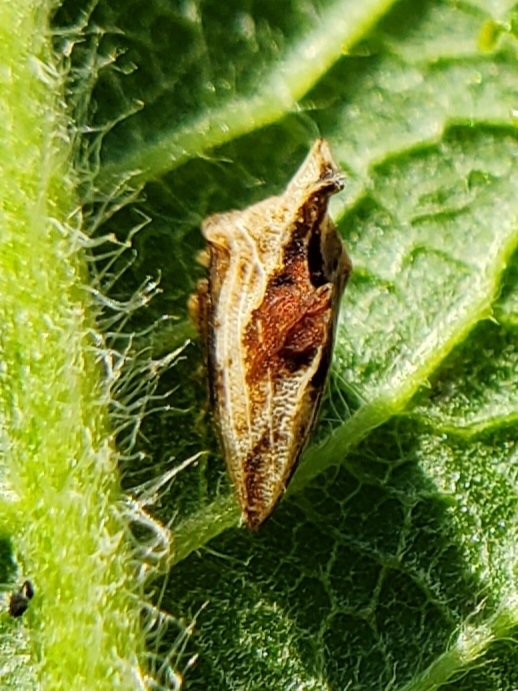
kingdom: Animalia
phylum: Arthropoda
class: Insecta
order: Hemiptera
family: Membracidae
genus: Entylia
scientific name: Entylia carinata
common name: Keeled treehopper
